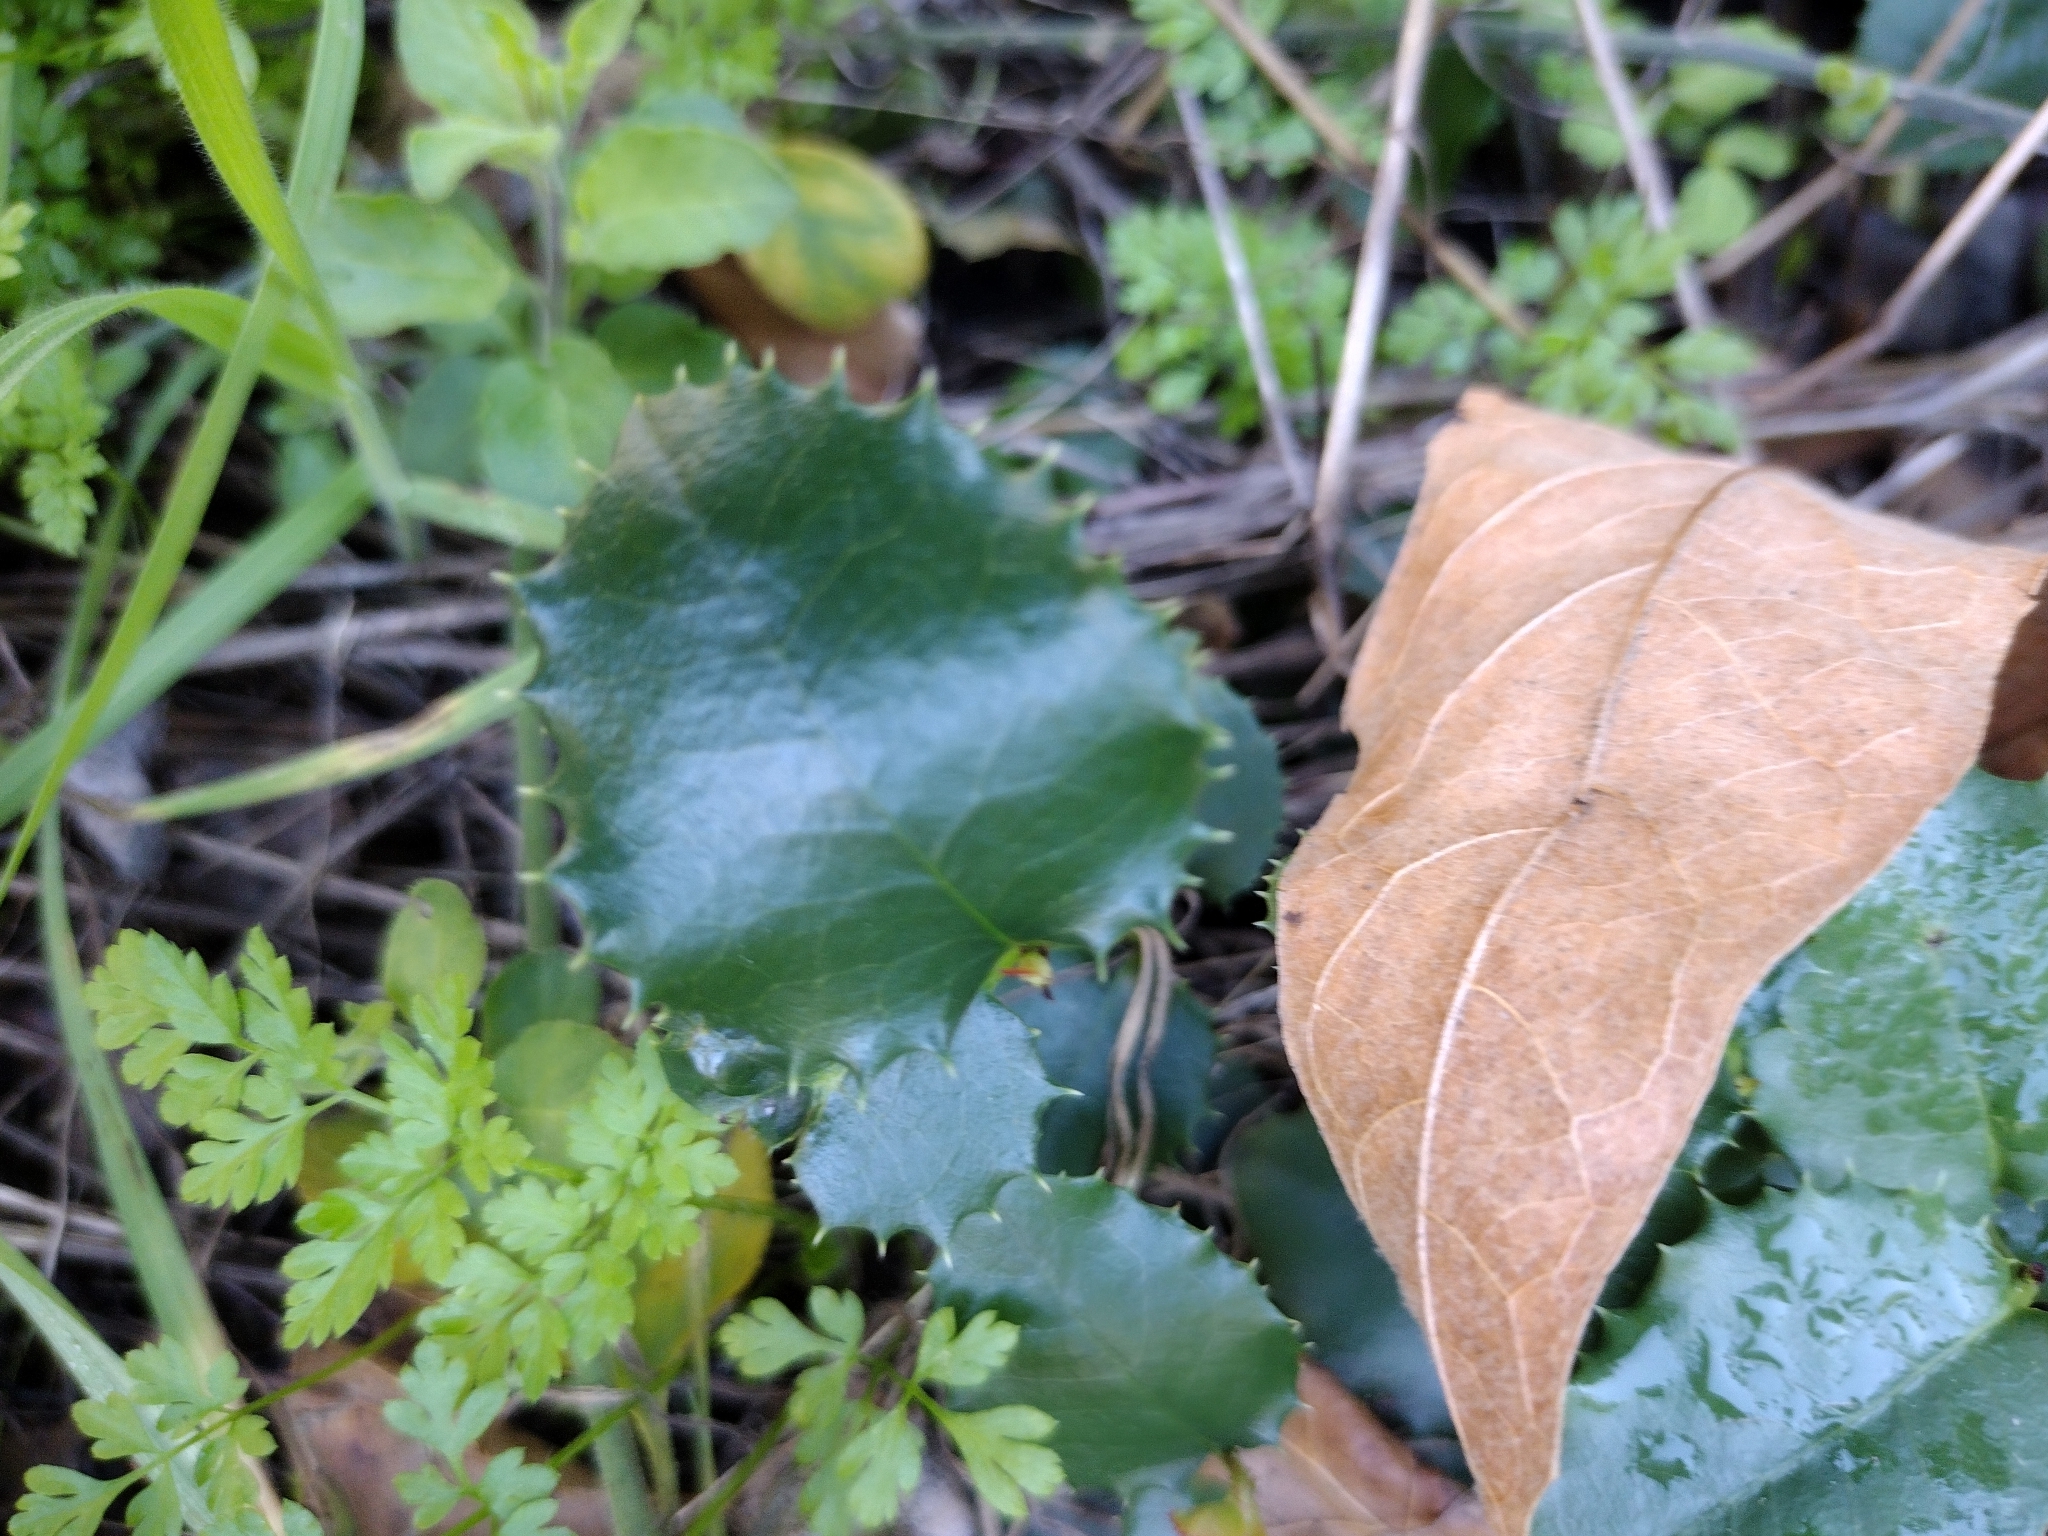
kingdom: Plantae
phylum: Tracheophyta
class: Magnoliopsida
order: Rosales
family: Rosaceae
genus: Prunus
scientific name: Prunus ilicifolia
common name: Hollyleaf cherry
